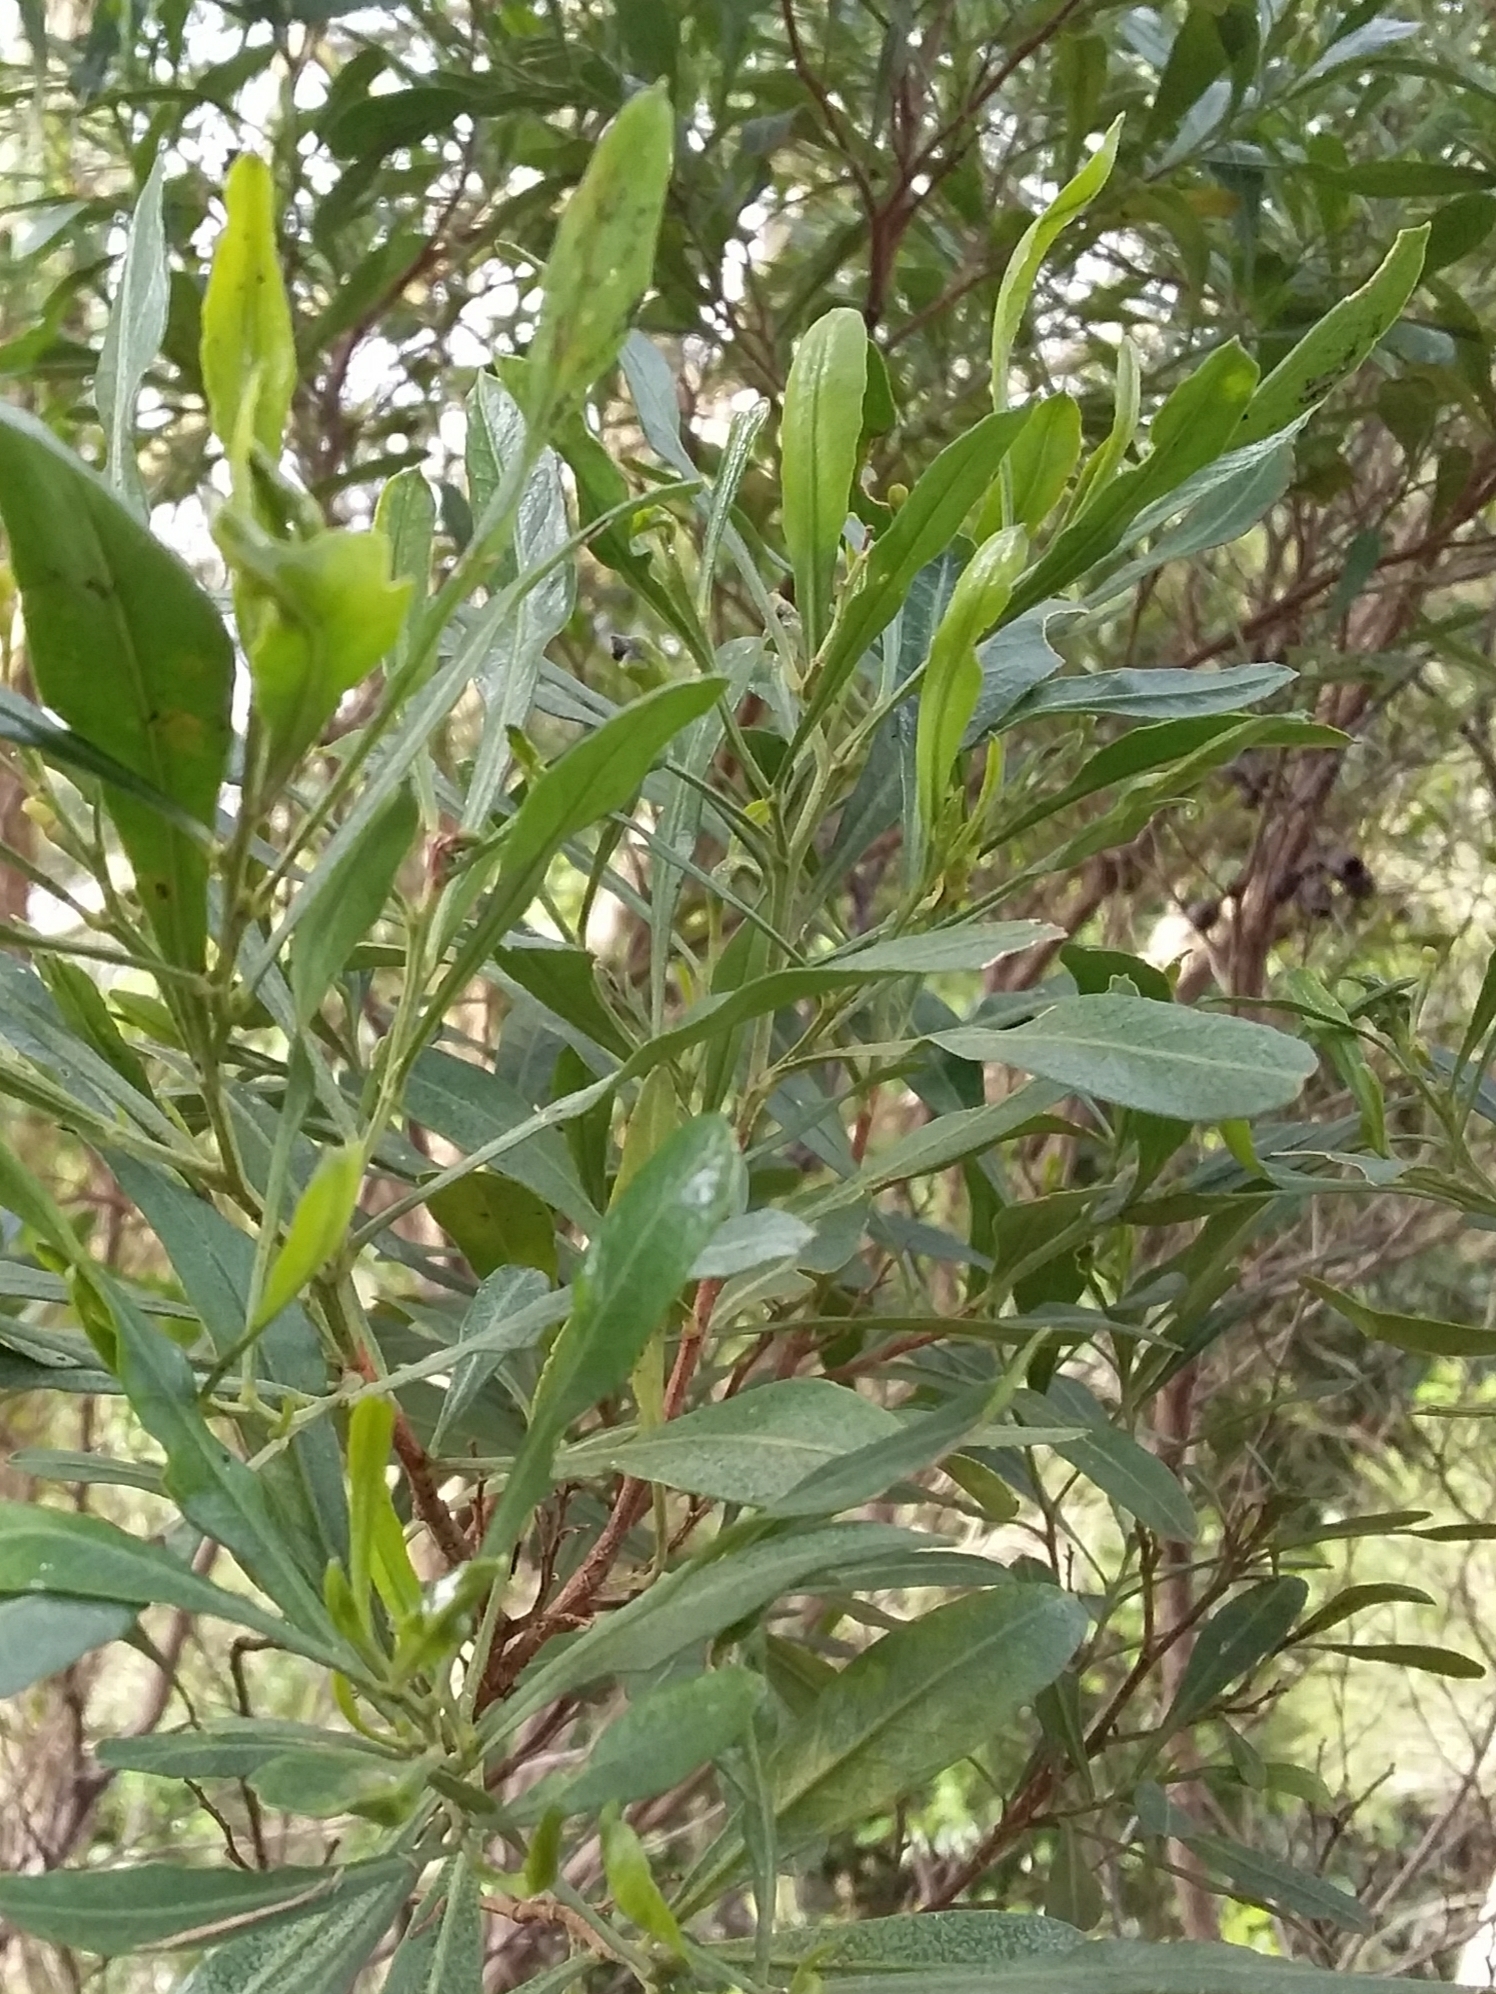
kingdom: Plantae
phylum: Tracheophyta
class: Magnoliopsida
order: Sapindales
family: Sapindaceae
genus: Dodonaea
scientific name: Dodonaea viscosa
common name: Hopbush
